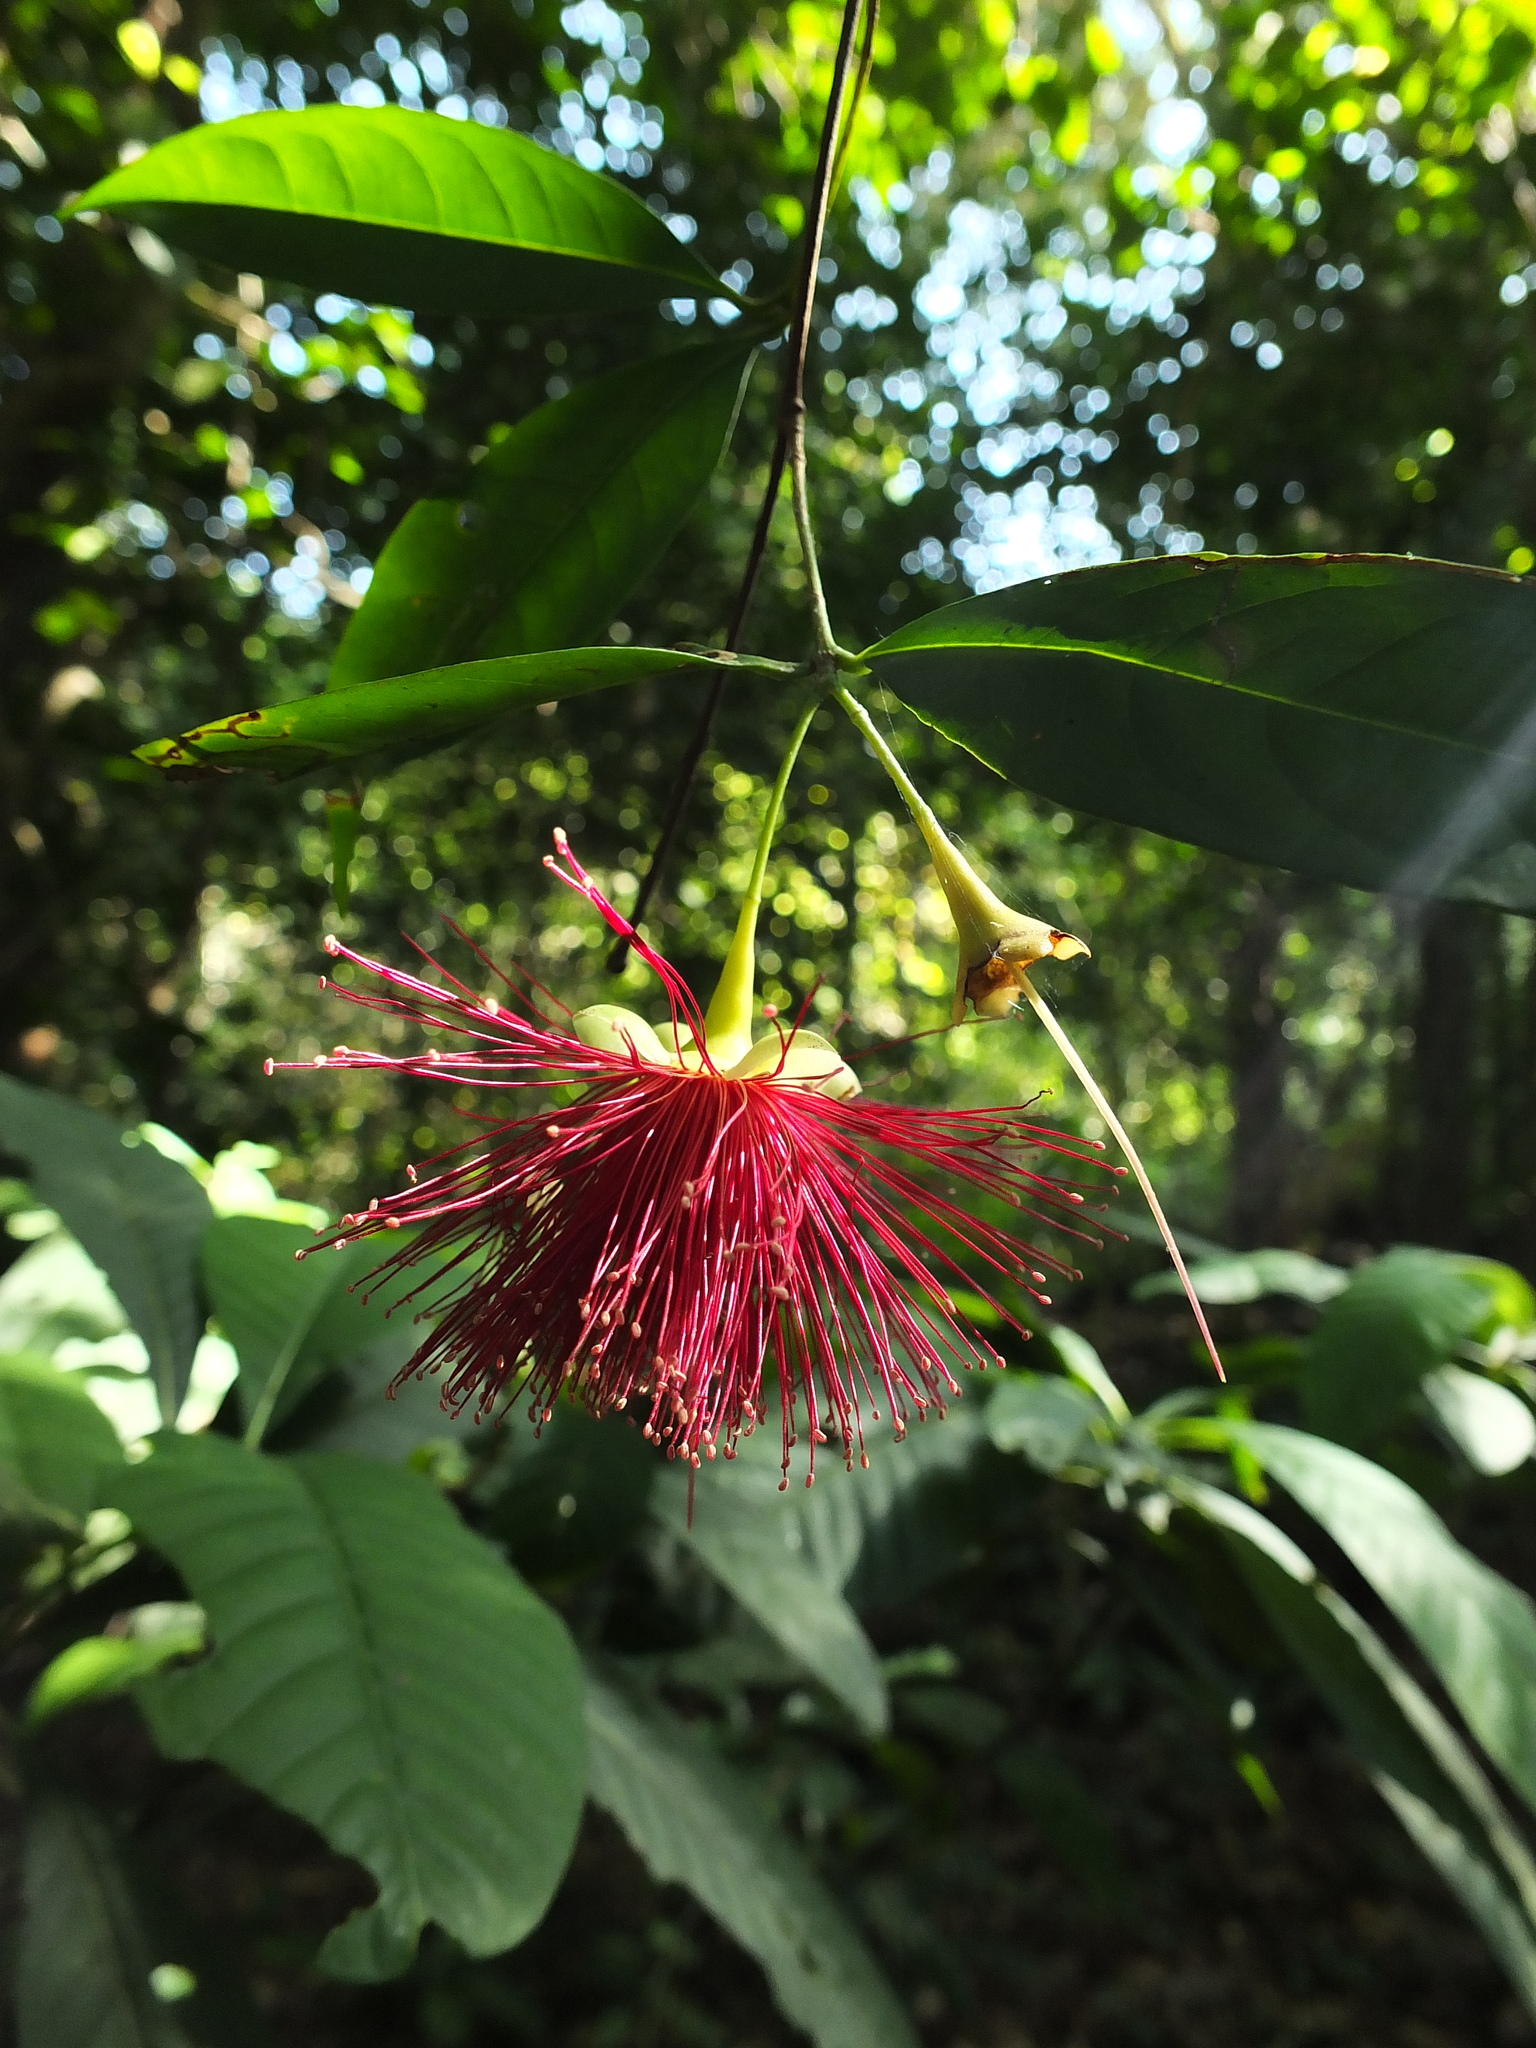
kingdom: Plantae
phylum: Tracheophyta
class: Magnoliopsida
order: Myrtales
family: Myrtaceae
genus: Syzygium
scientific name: Syzygium laetum
